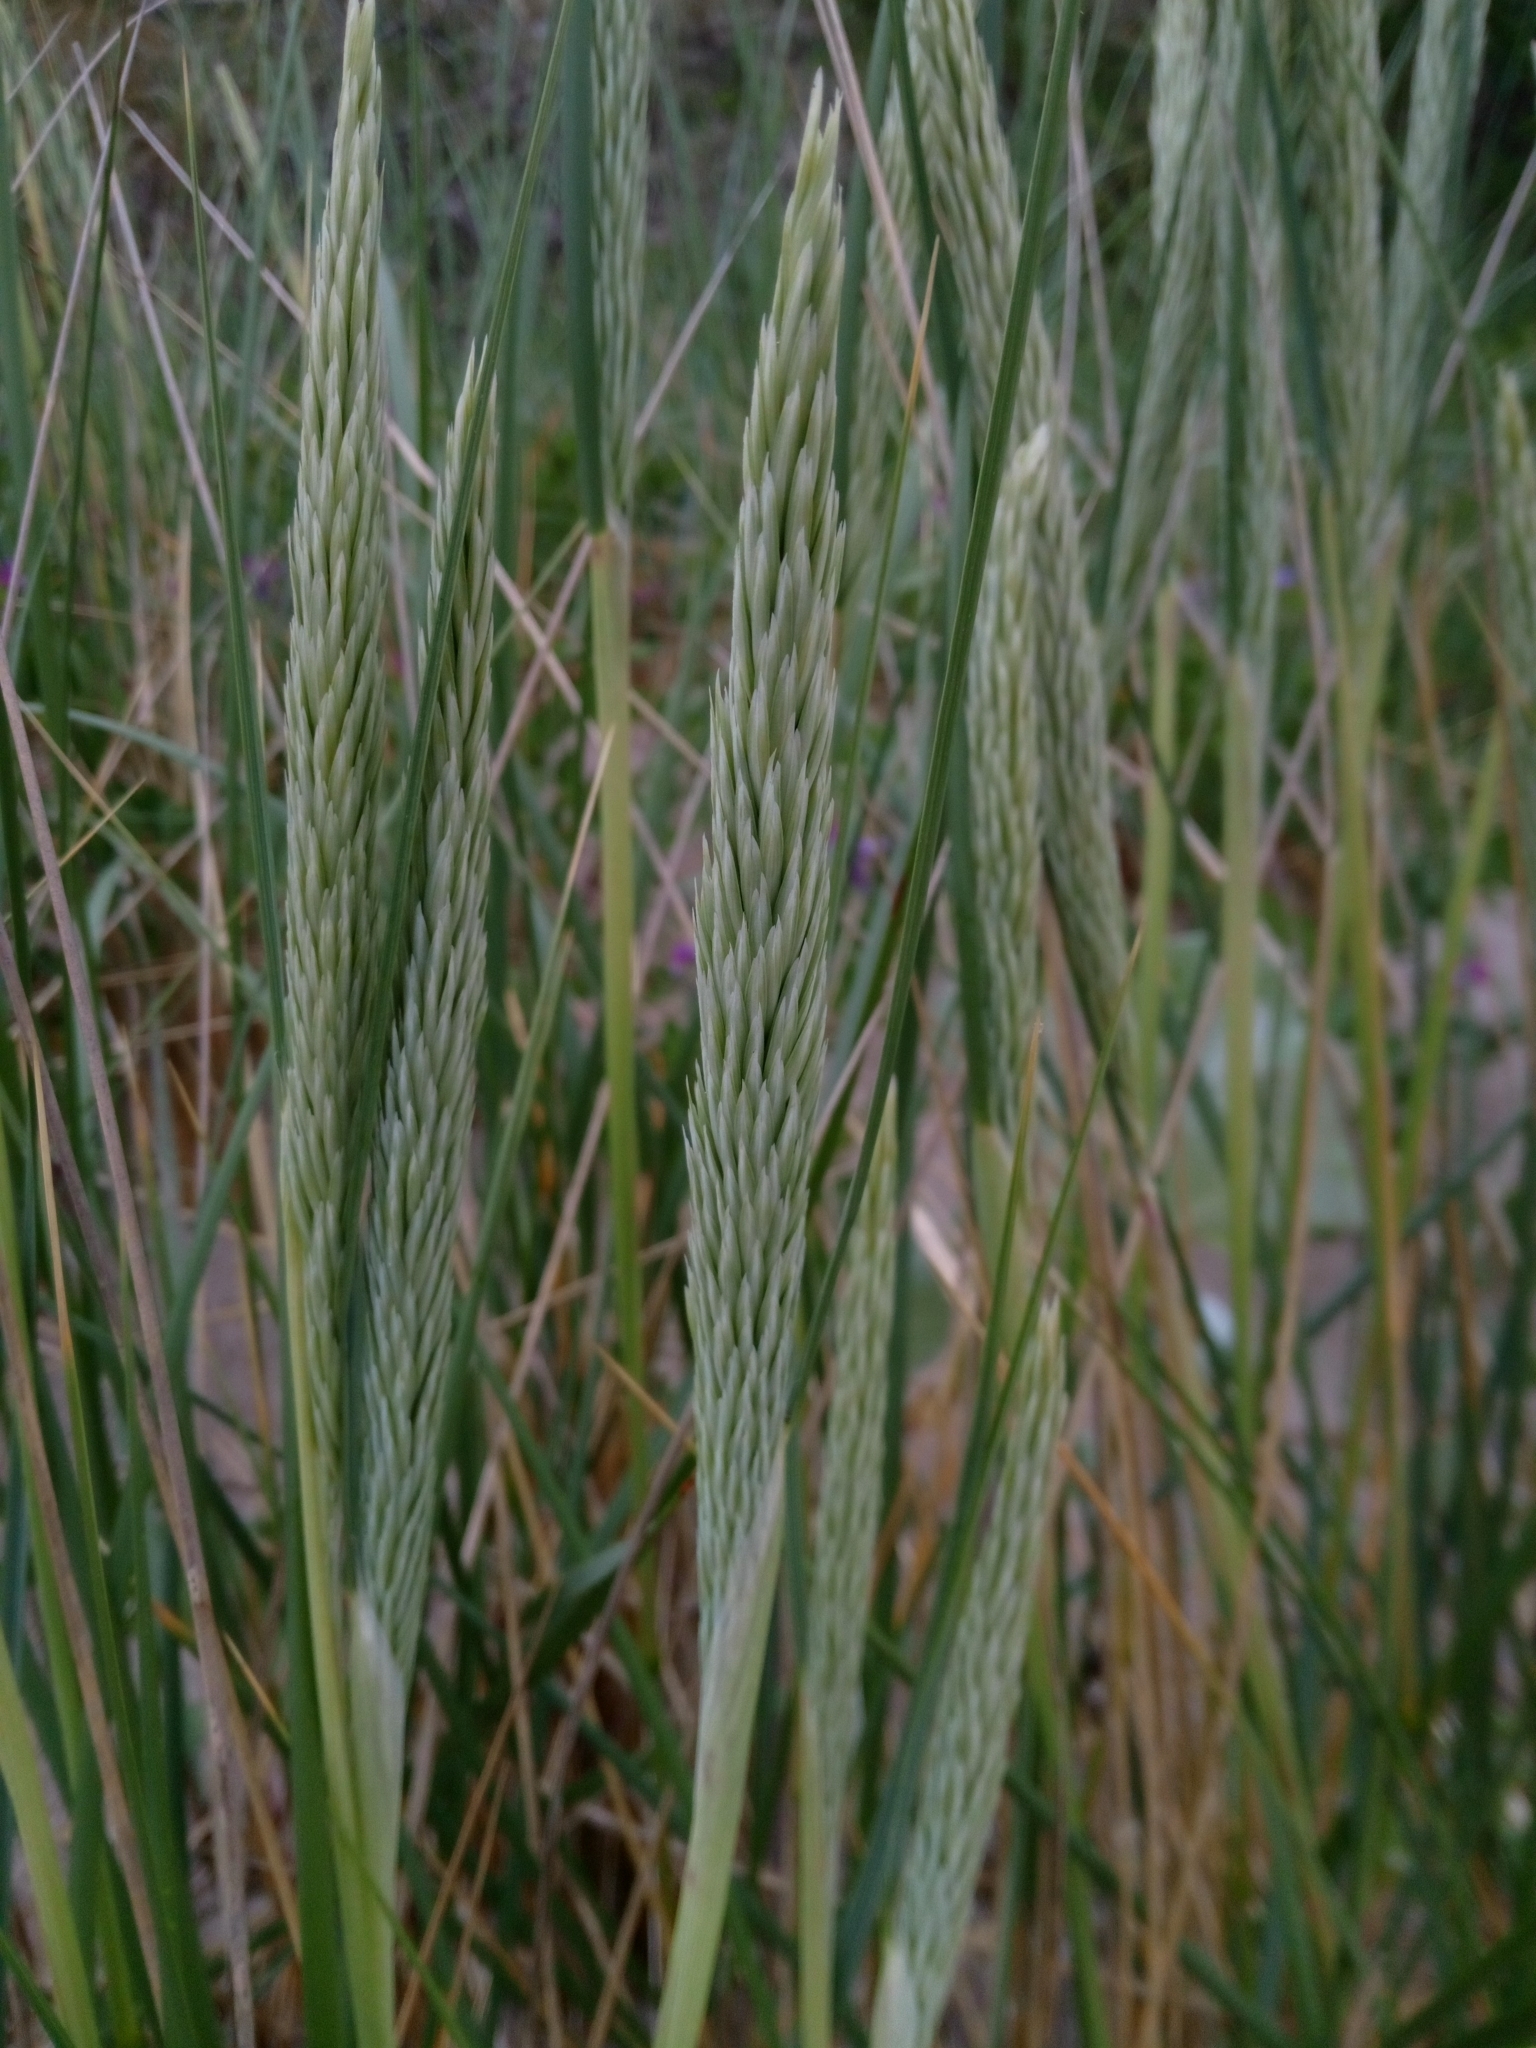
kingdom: Plantae
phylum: Tracheophyta
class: Liliopsida
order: Poales
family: Poaceae
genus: Calamagrostis
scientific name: Calamagrostis arenaria
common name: European beachgrass
